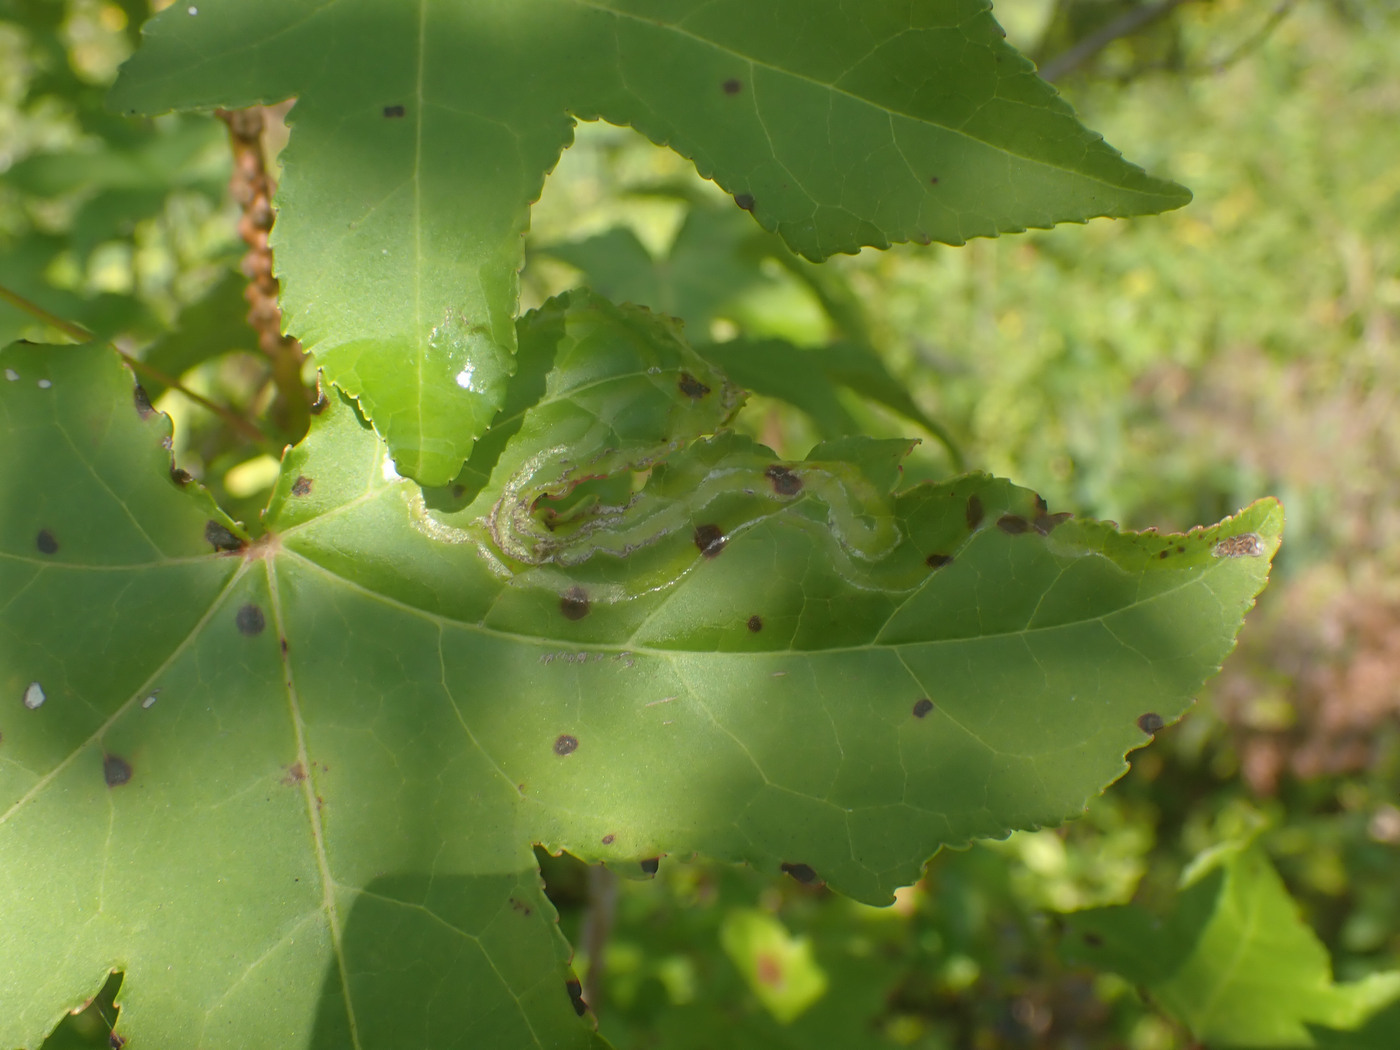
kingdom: Animalia
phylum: Arthropoda
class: Insecta
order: Lepidoptera
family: Gracillariidae
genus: Phyllocnistis
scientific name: Phyllocnistis liquidambarisella
